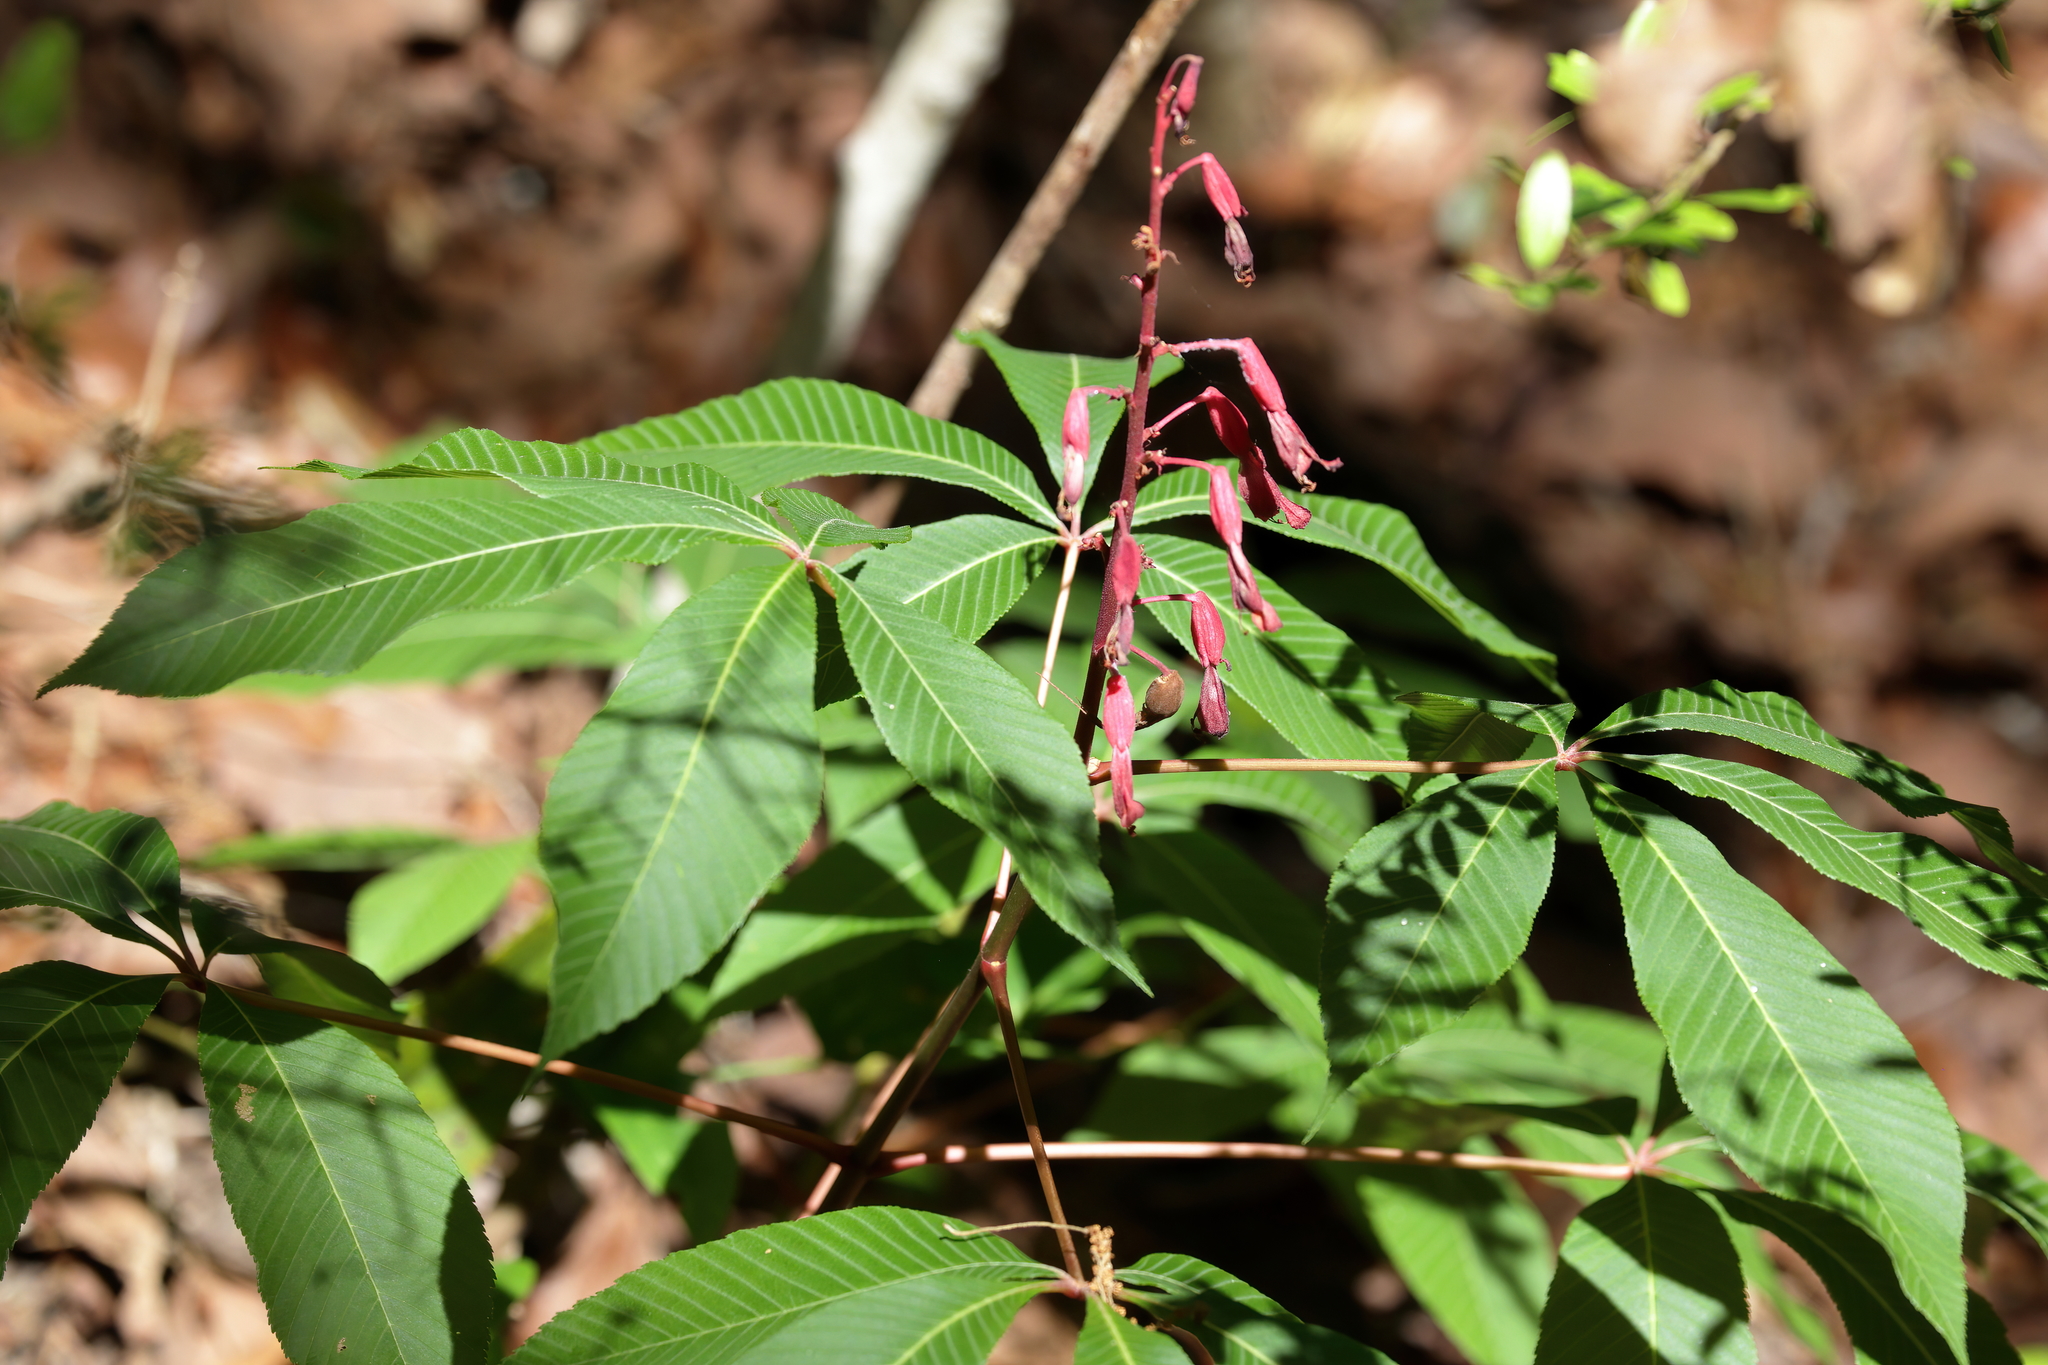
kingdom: Plantae
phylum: Tracheophyta
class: Magnoliopsida
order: Sapindales
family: Sapindaceae
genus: Aesculus
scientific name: Aesculus pavia
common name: Red buckeye
